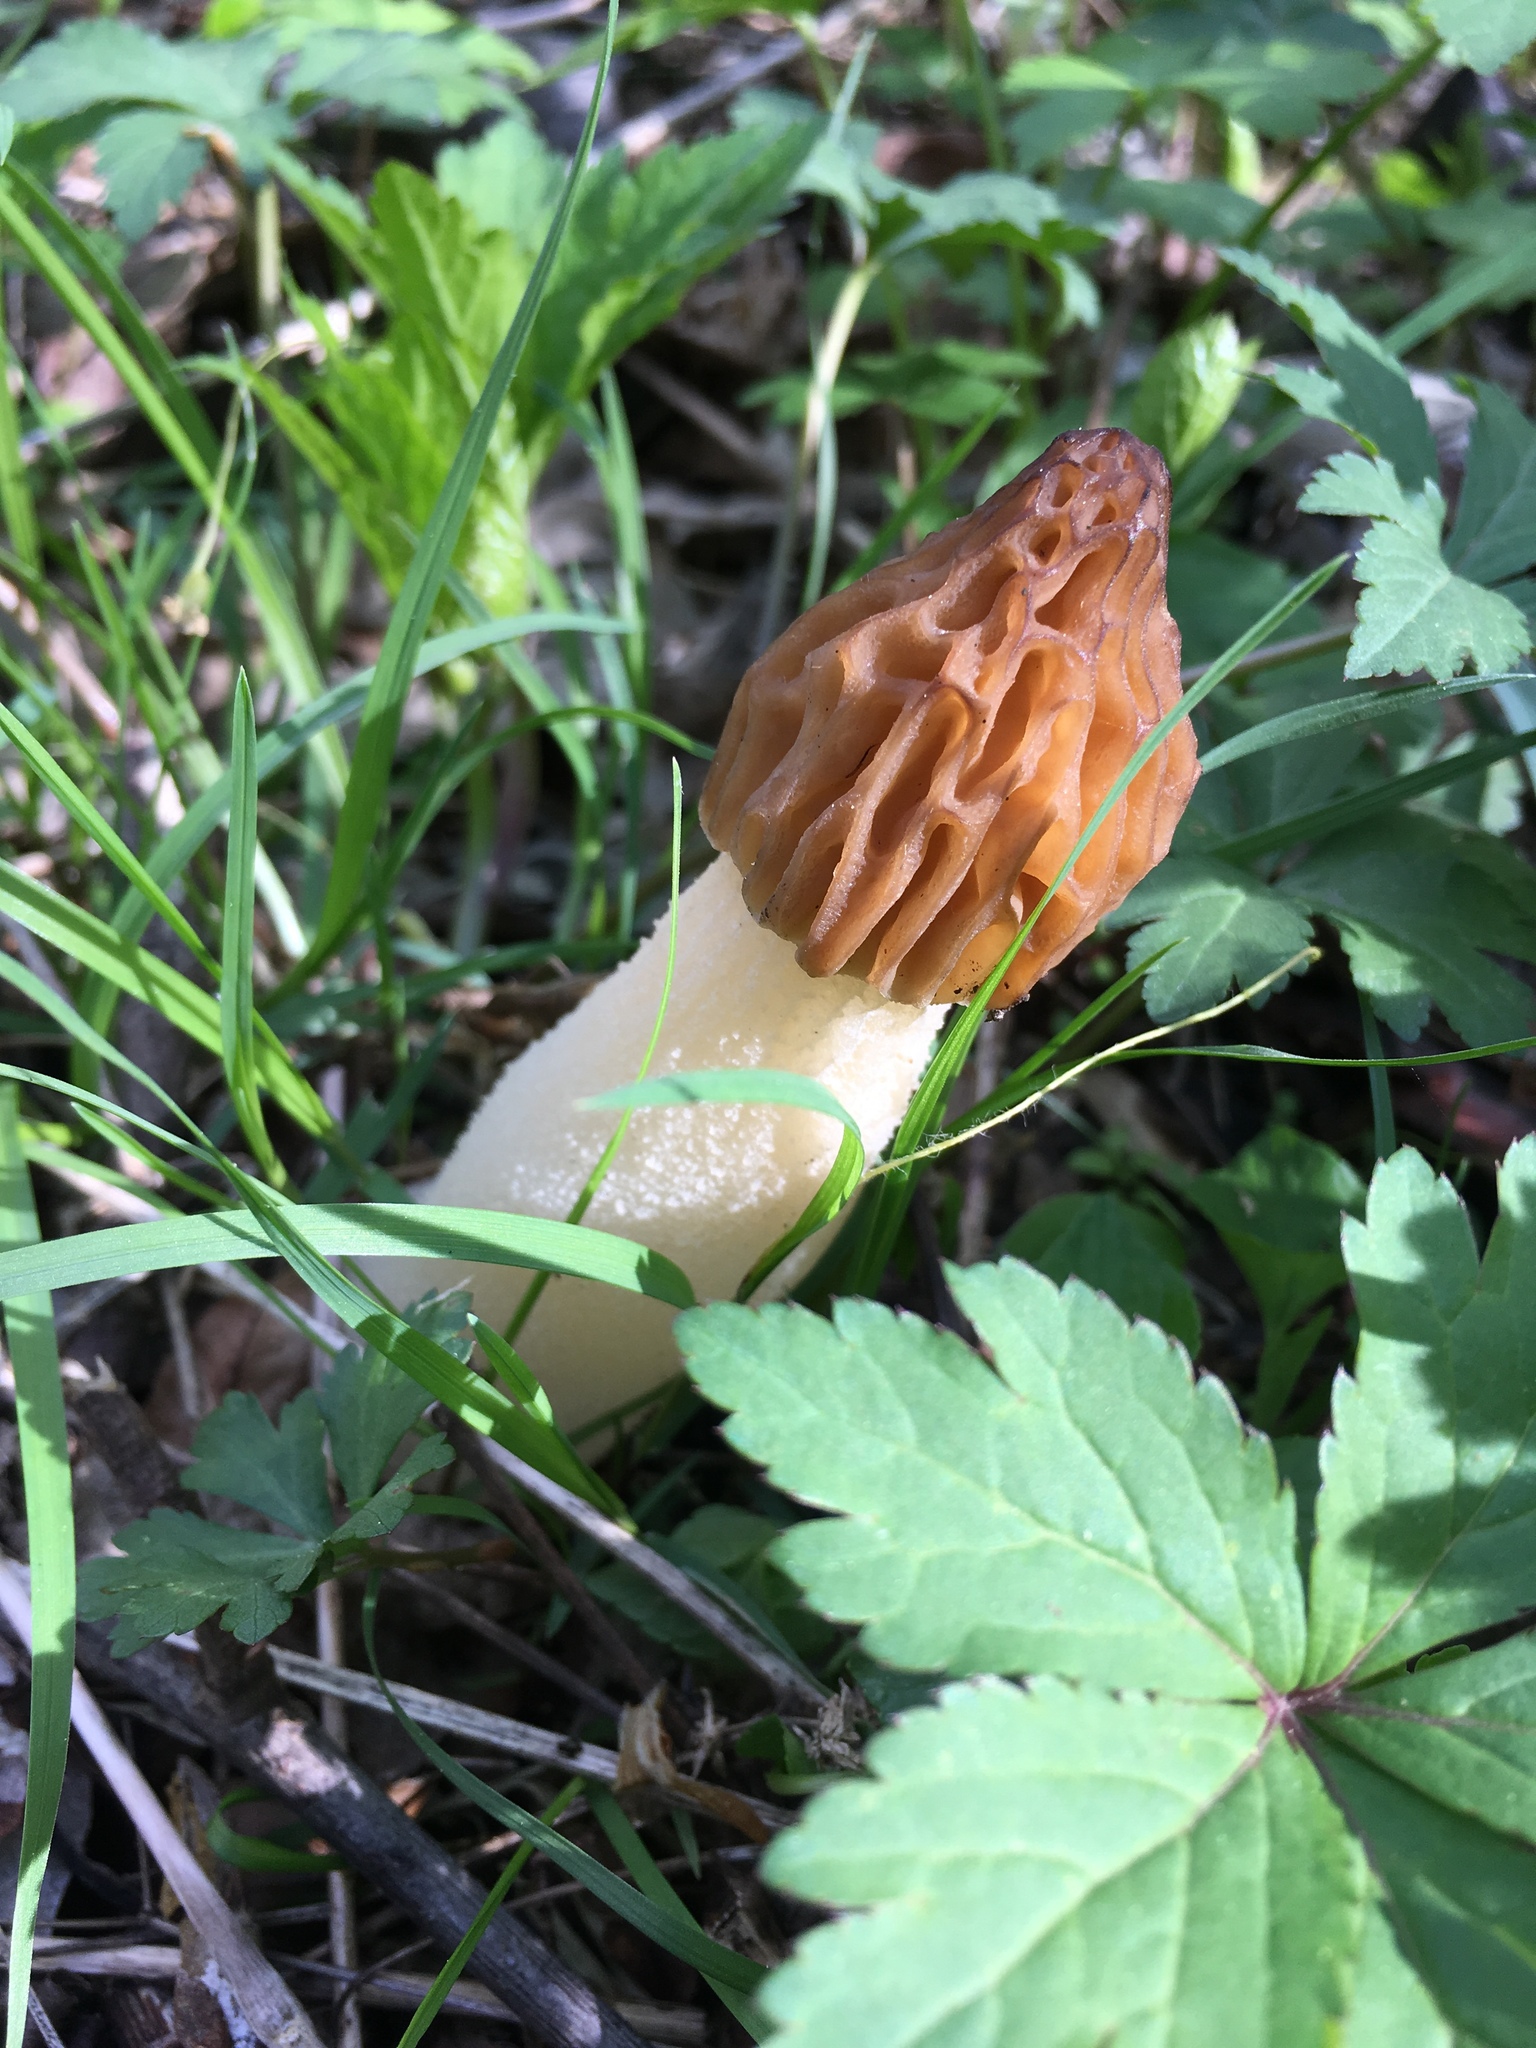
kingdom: Fungi
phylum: Ascomycota
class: Pezizomycetes
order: Pezizales
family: Morchellaceae
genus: Morchella
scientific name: Morchella punctipes
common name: Half-free morel
